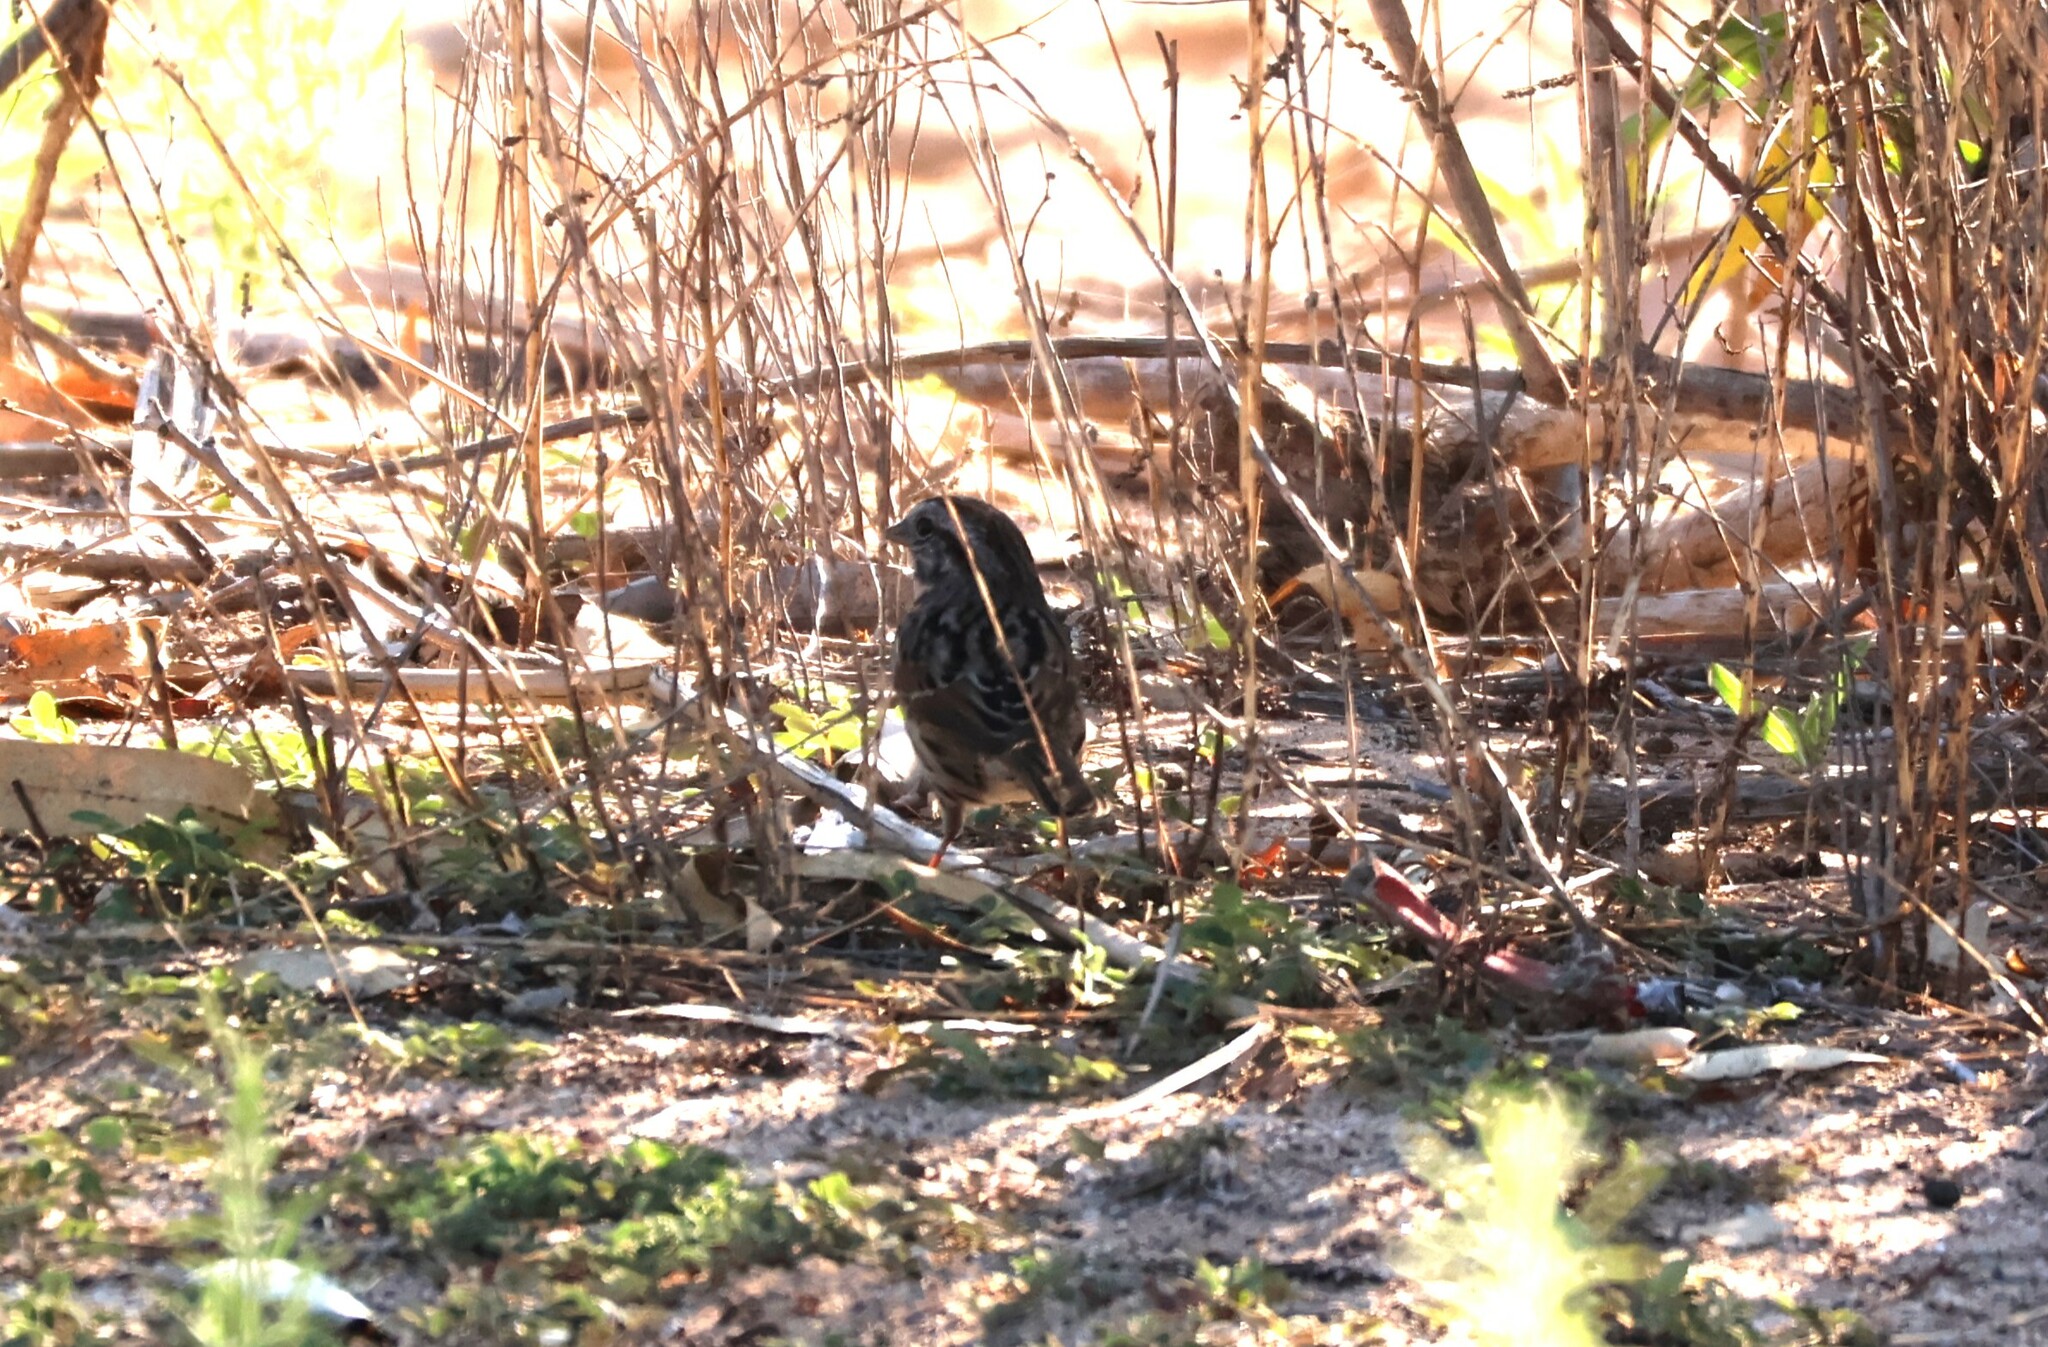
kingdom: Animalia
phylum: Chordata
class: Aves
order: Passeriformes
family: Passerellidae
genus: Melospiza
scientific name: Melospiza melodia
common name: Song sparrow
